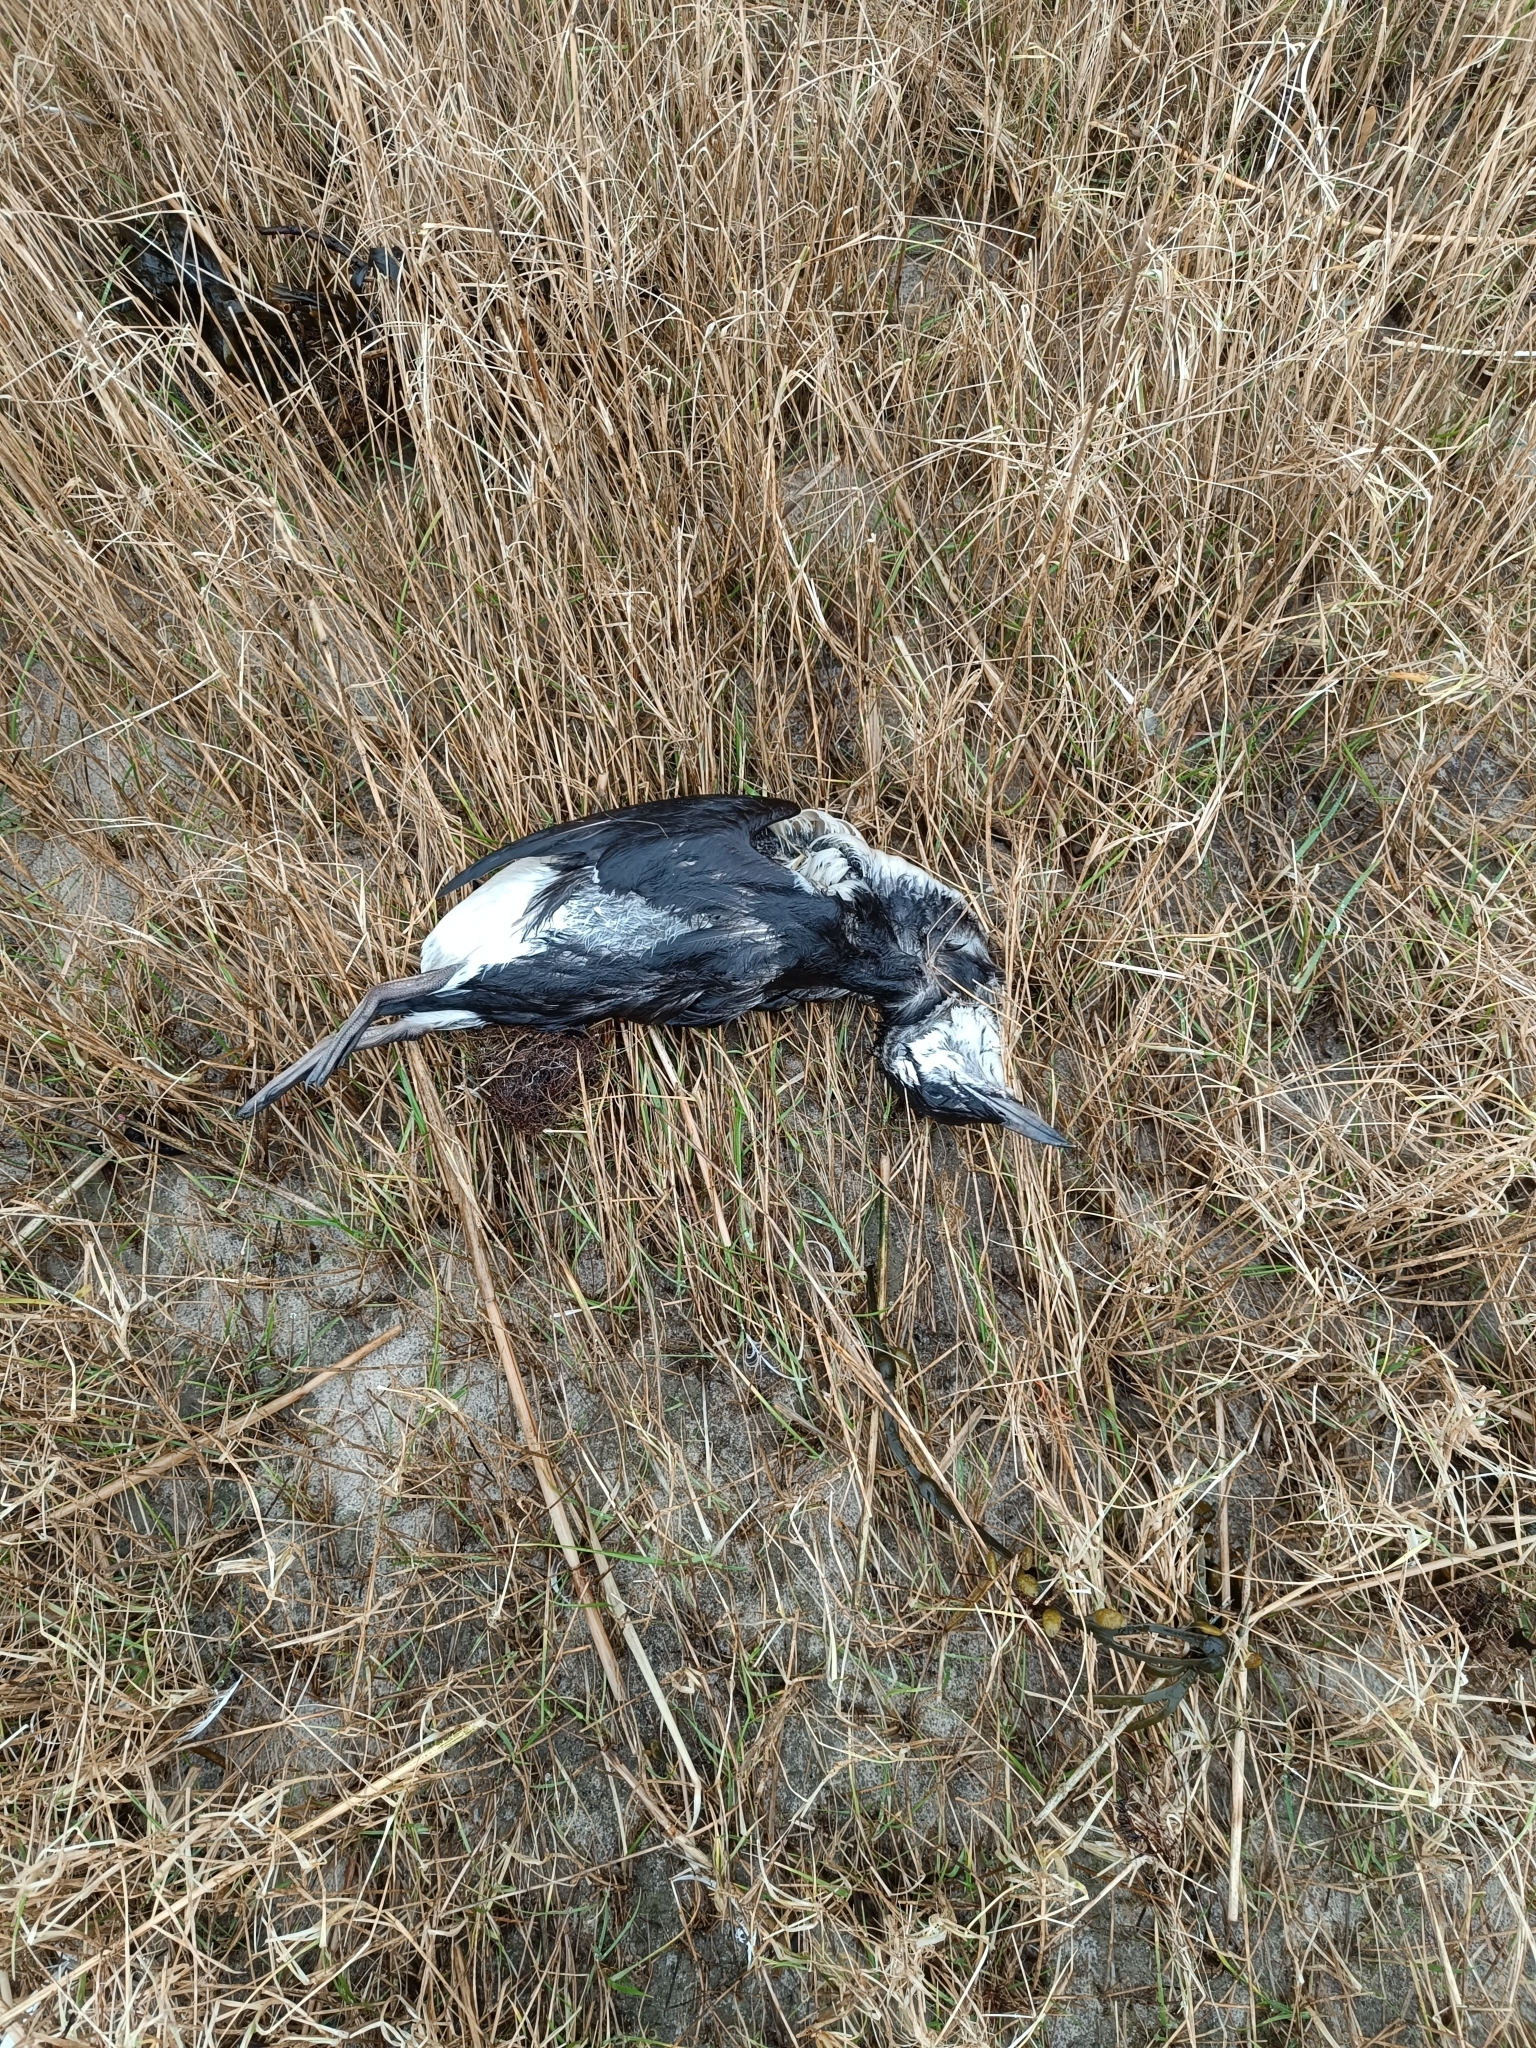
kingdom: Animalia
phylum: Chordata
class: Aves
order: Charadriiformes
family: Alcidae
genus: Uria
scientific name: Uria aalge
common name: Common murre
